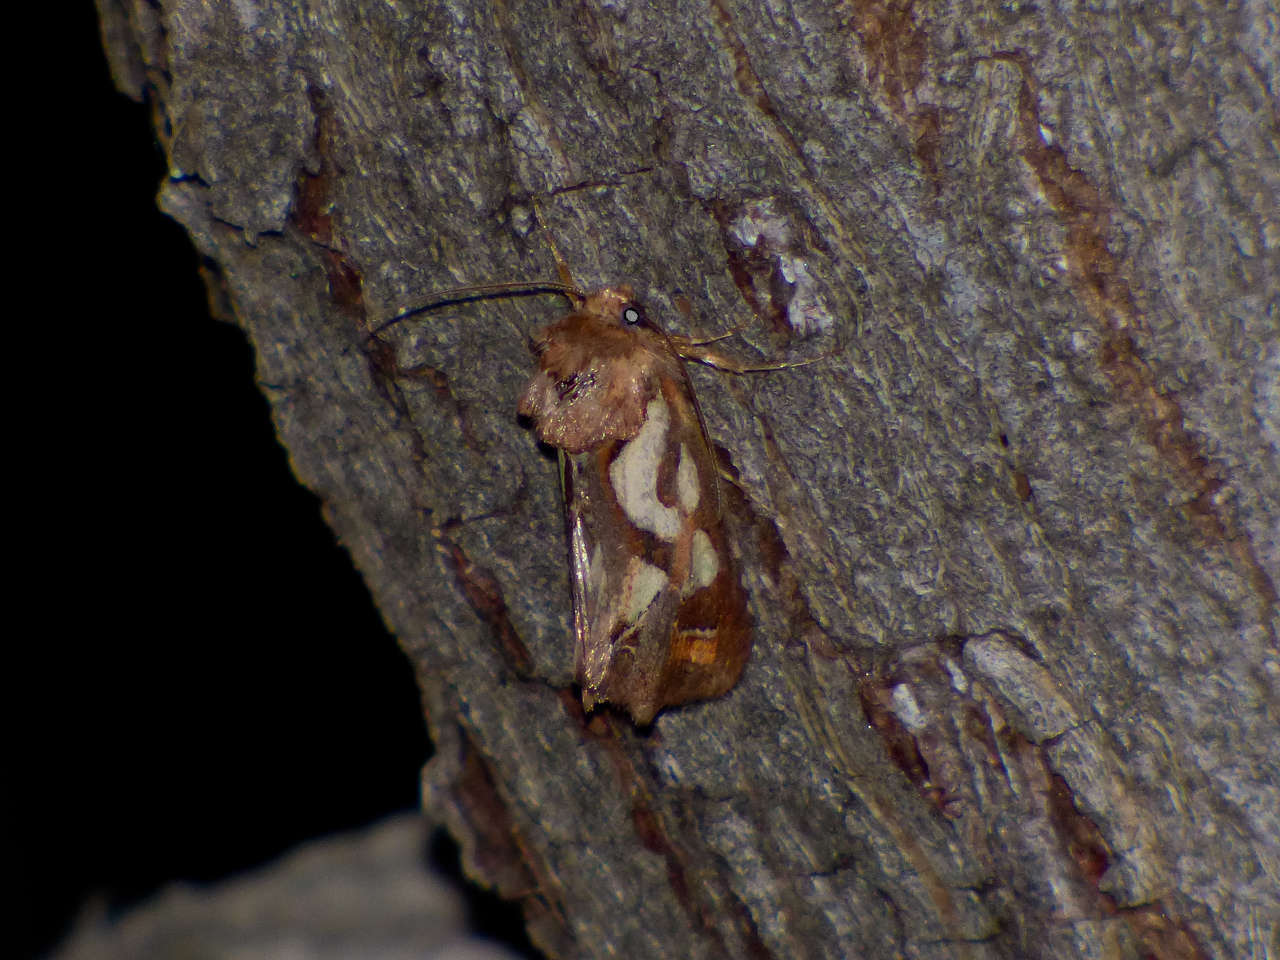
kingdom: Animalia
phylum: Arthropoda
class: Insecta
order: Lepidoptera
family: Noctuidae
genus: Cosmodes
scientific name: Cosmodes elegans
